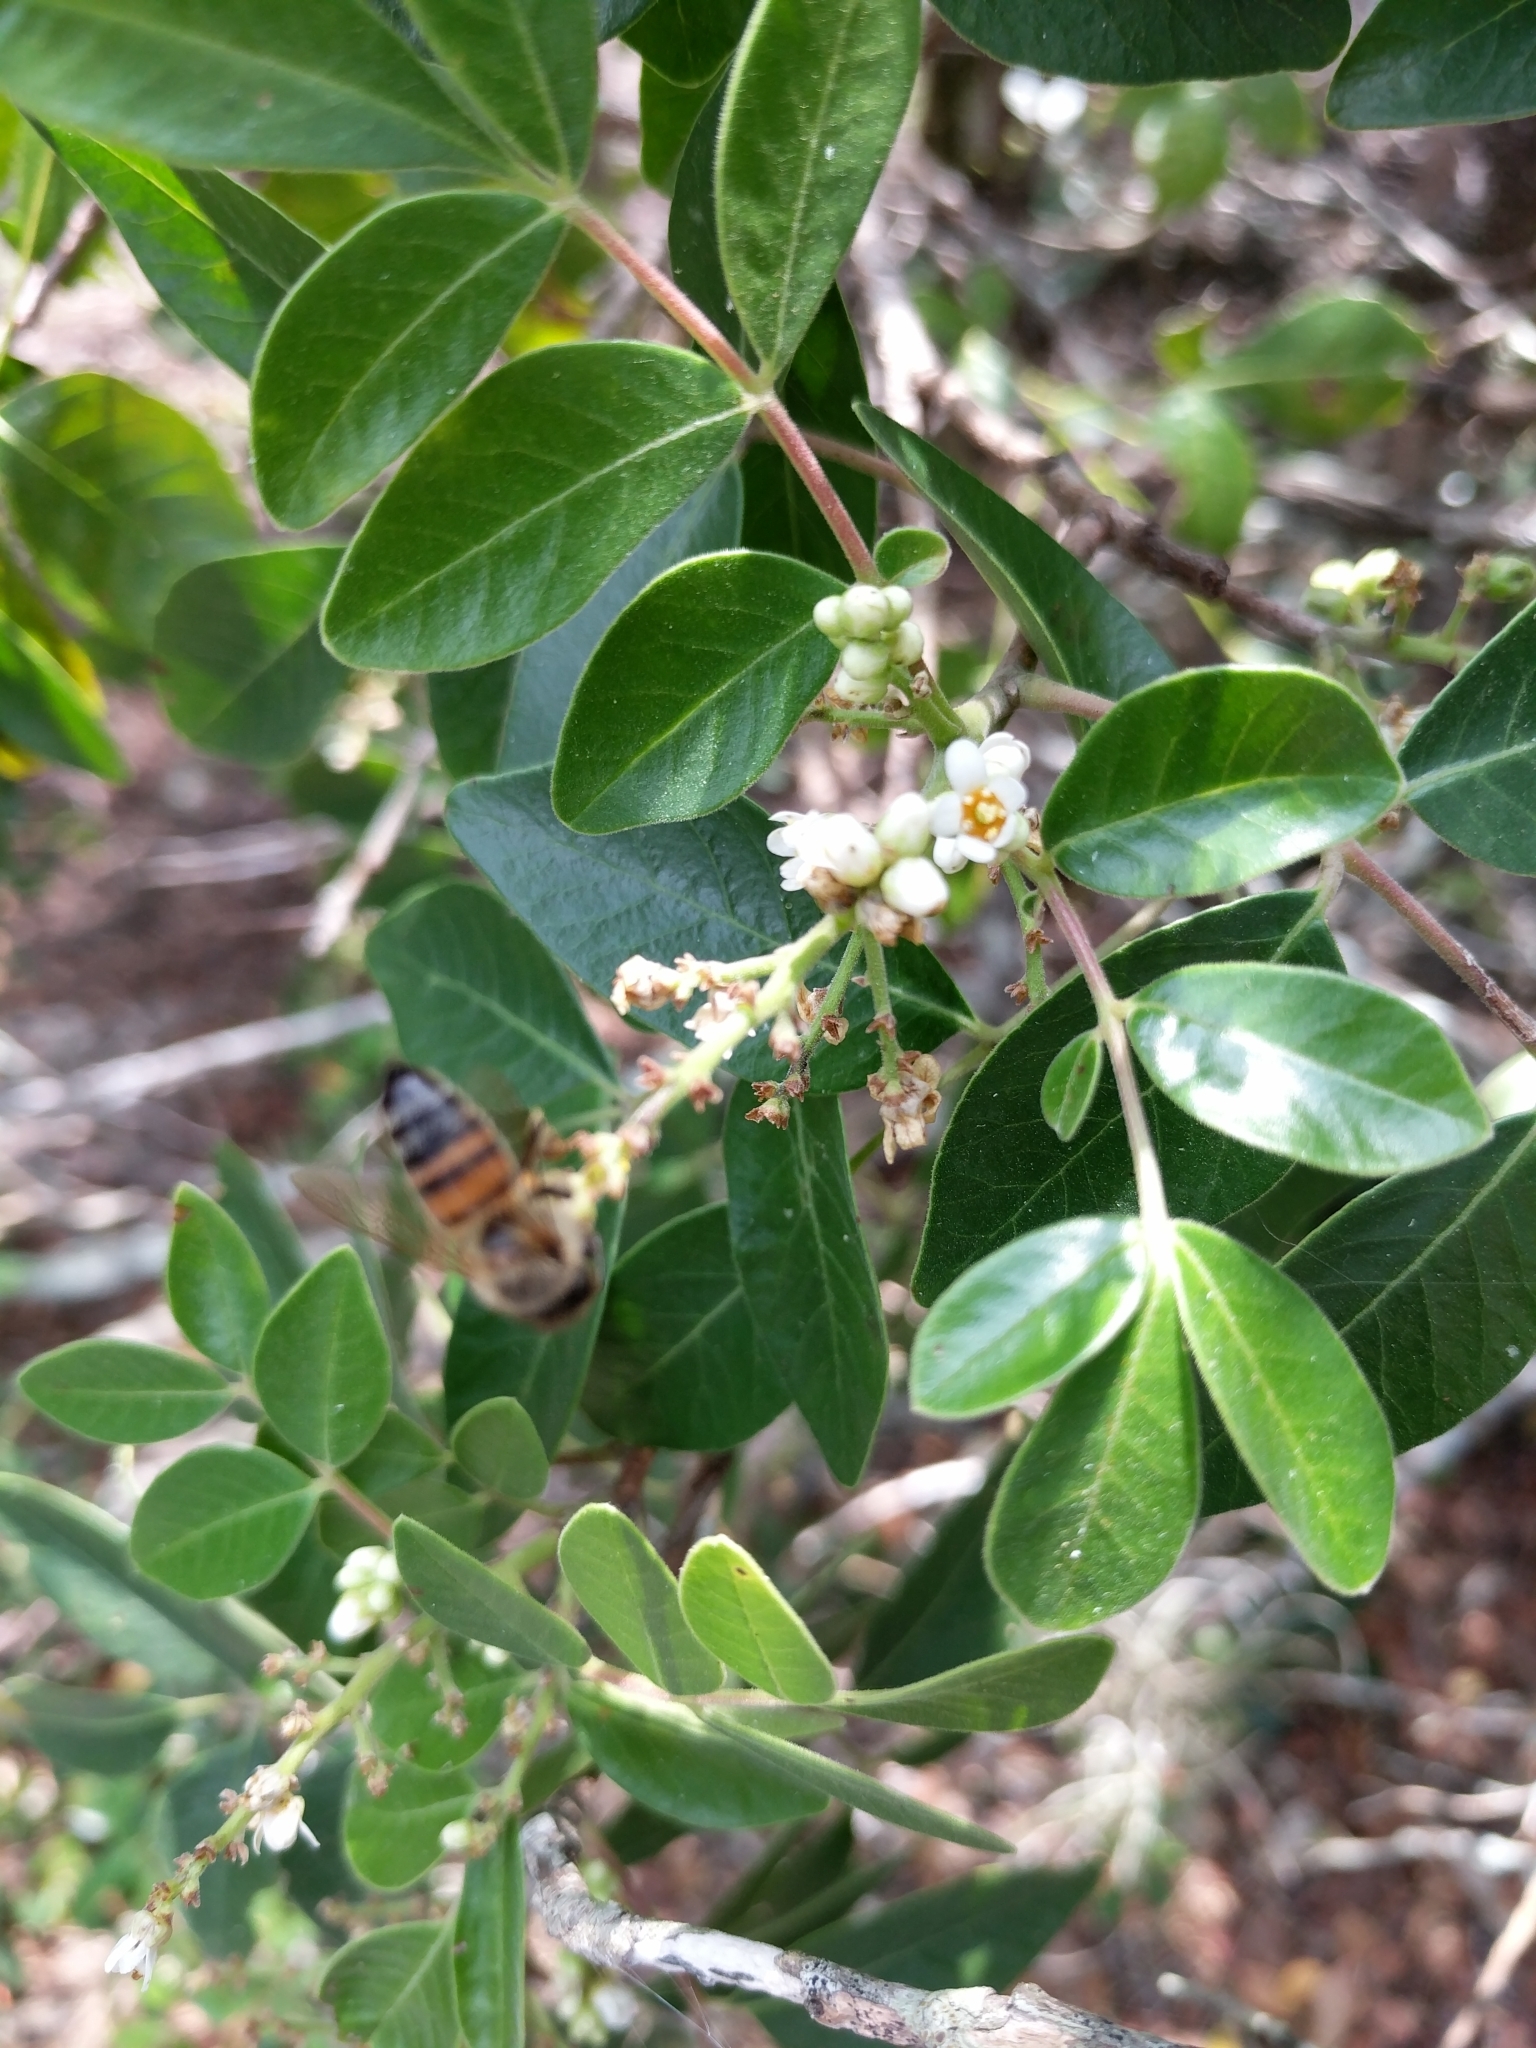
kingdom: Plantae
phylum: Tracheophyta
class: Magnoliopsida
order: Sapindales
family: Anacardiaceae
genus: Rhus
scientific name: Rhus virens
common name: Evergreen sumac
